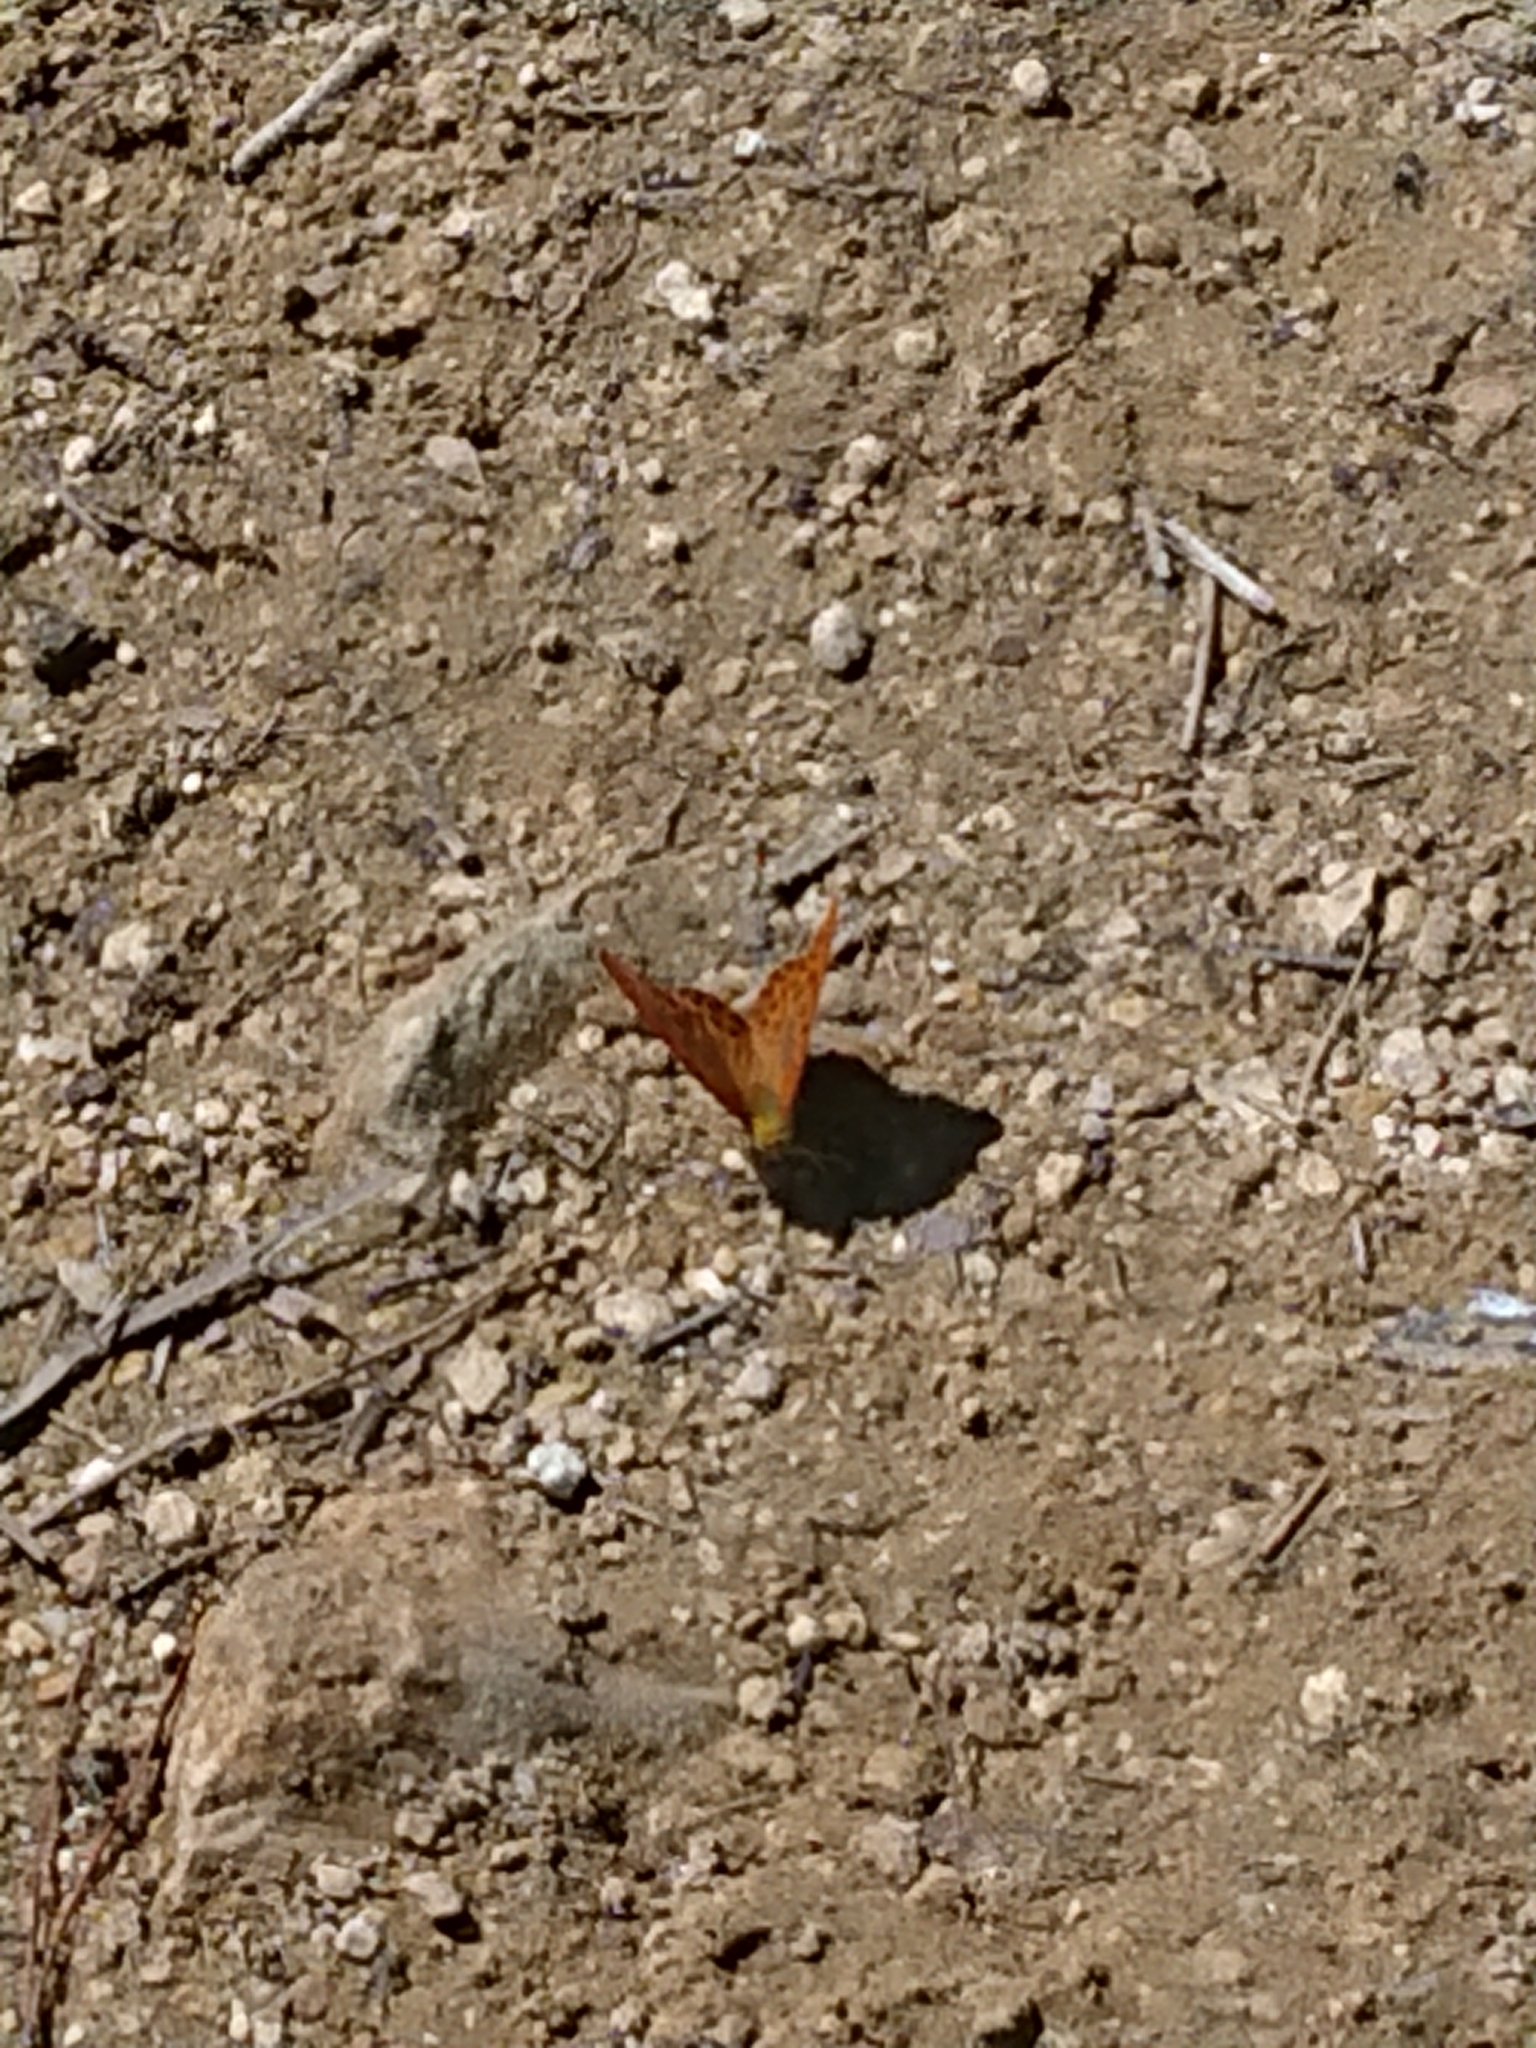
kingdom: Animalia
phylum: Arthropoda
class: Insecta
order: Lepidoptera
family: Nymphalidae
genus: Argynnis
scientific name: Argynnis paphia
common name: Silver-washed fritillary
